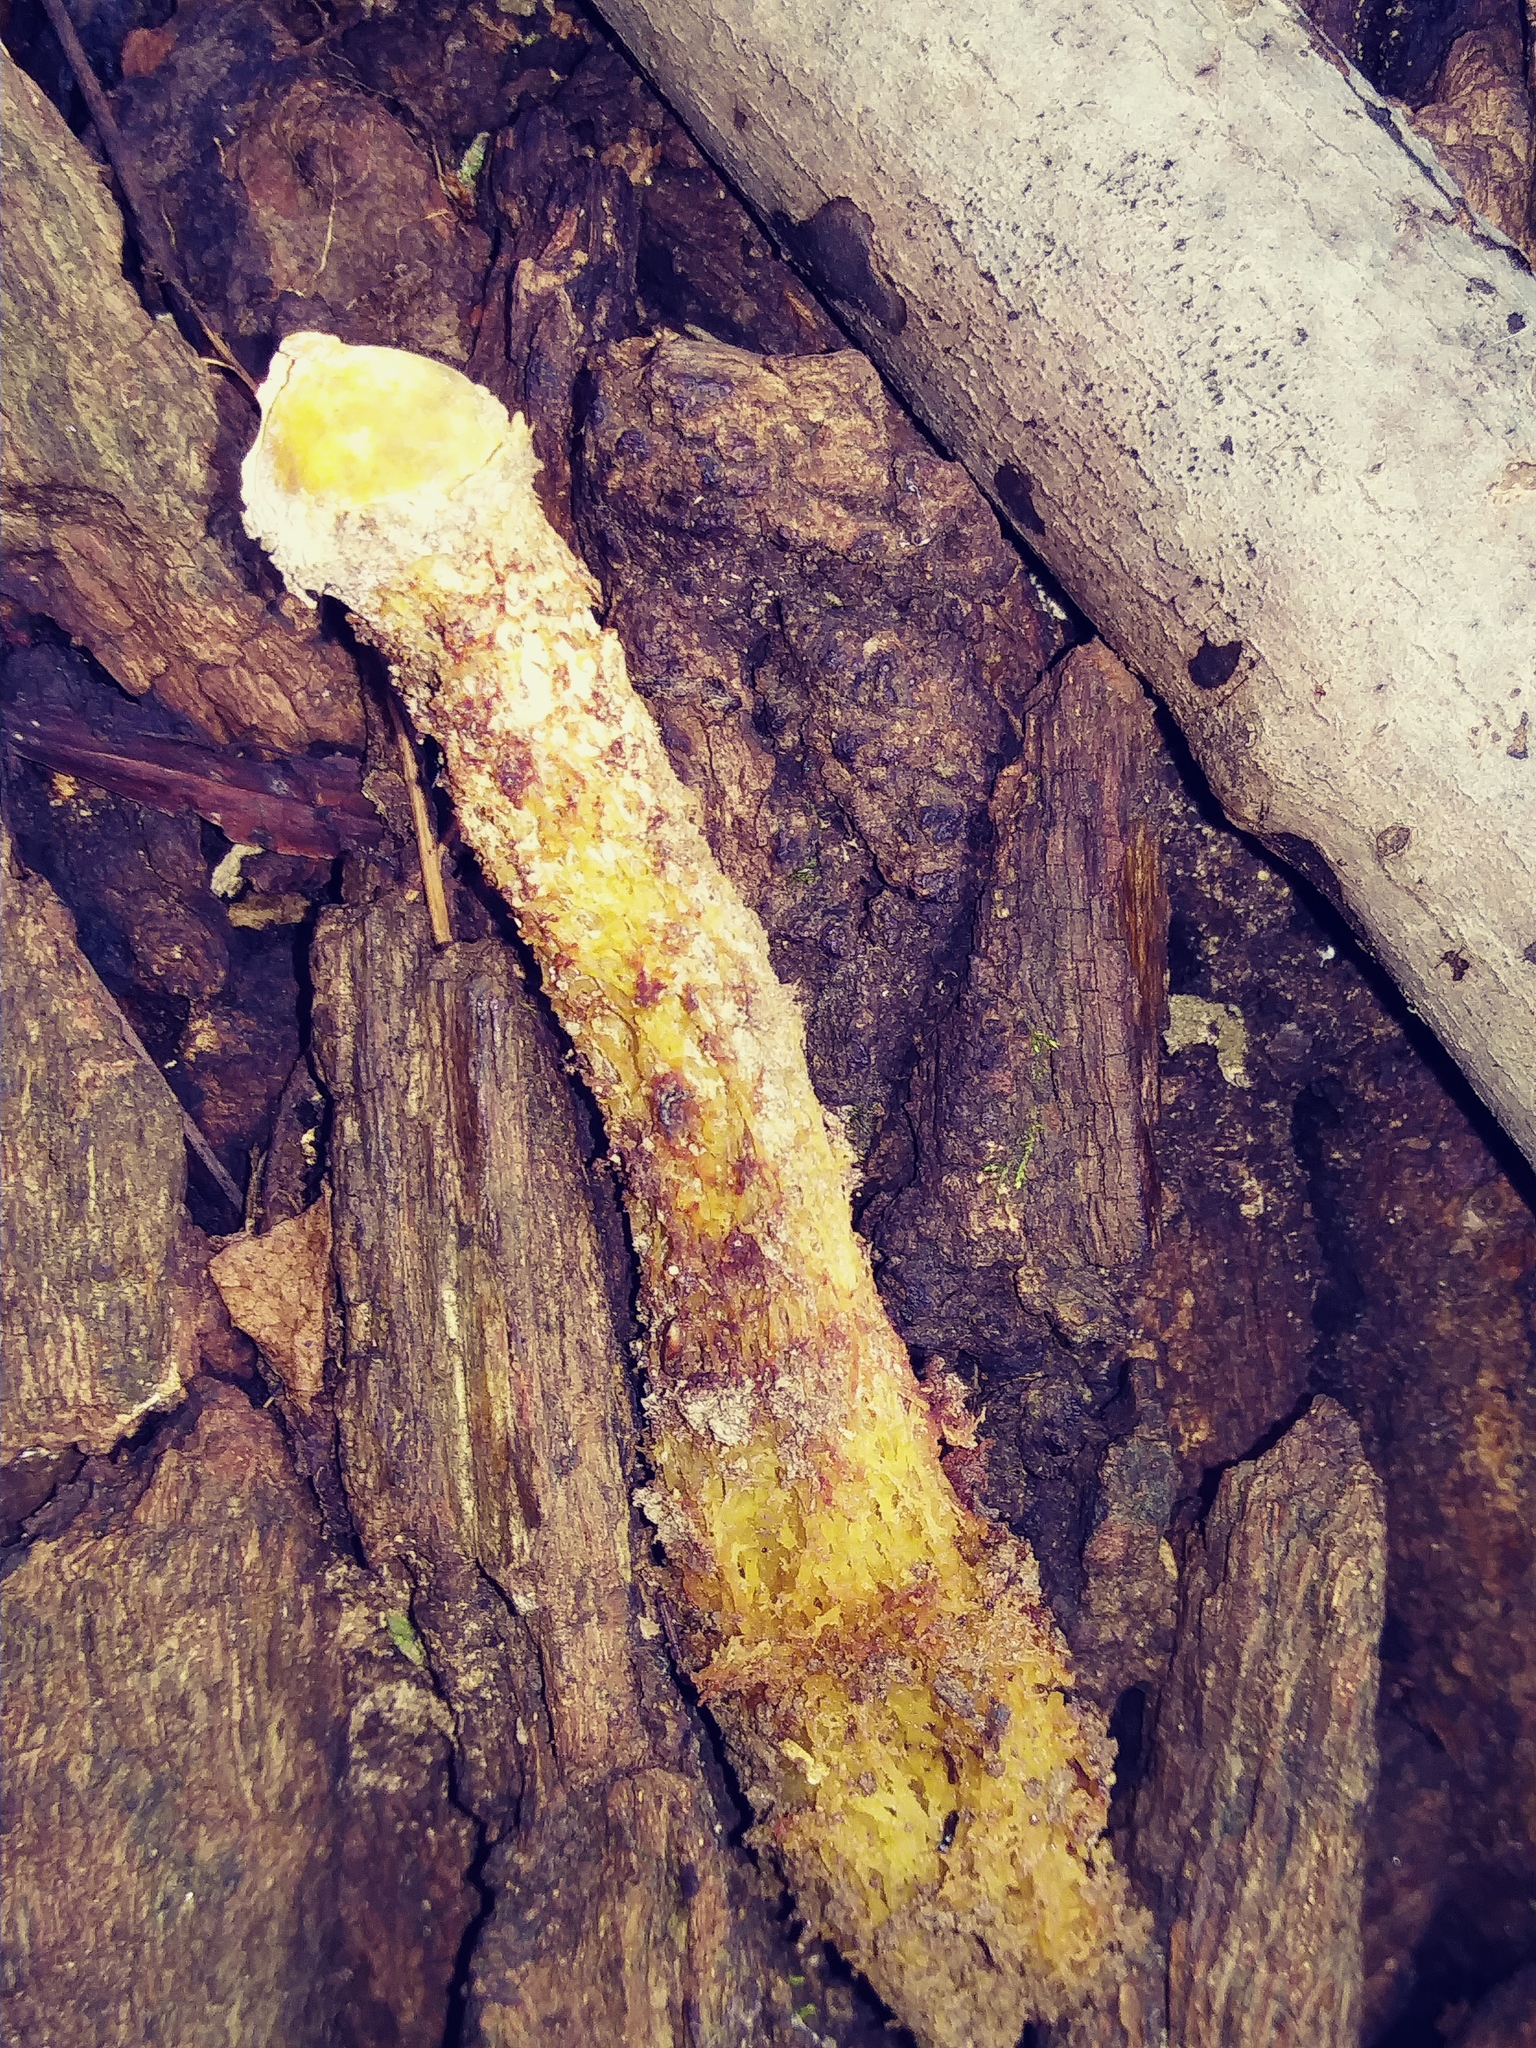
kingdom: Fungi
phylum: Basidiomycota
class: Agaricomycetes
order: Boletales
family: Calostomataceae
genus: Calostoma
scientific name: Calostoma lutescens
